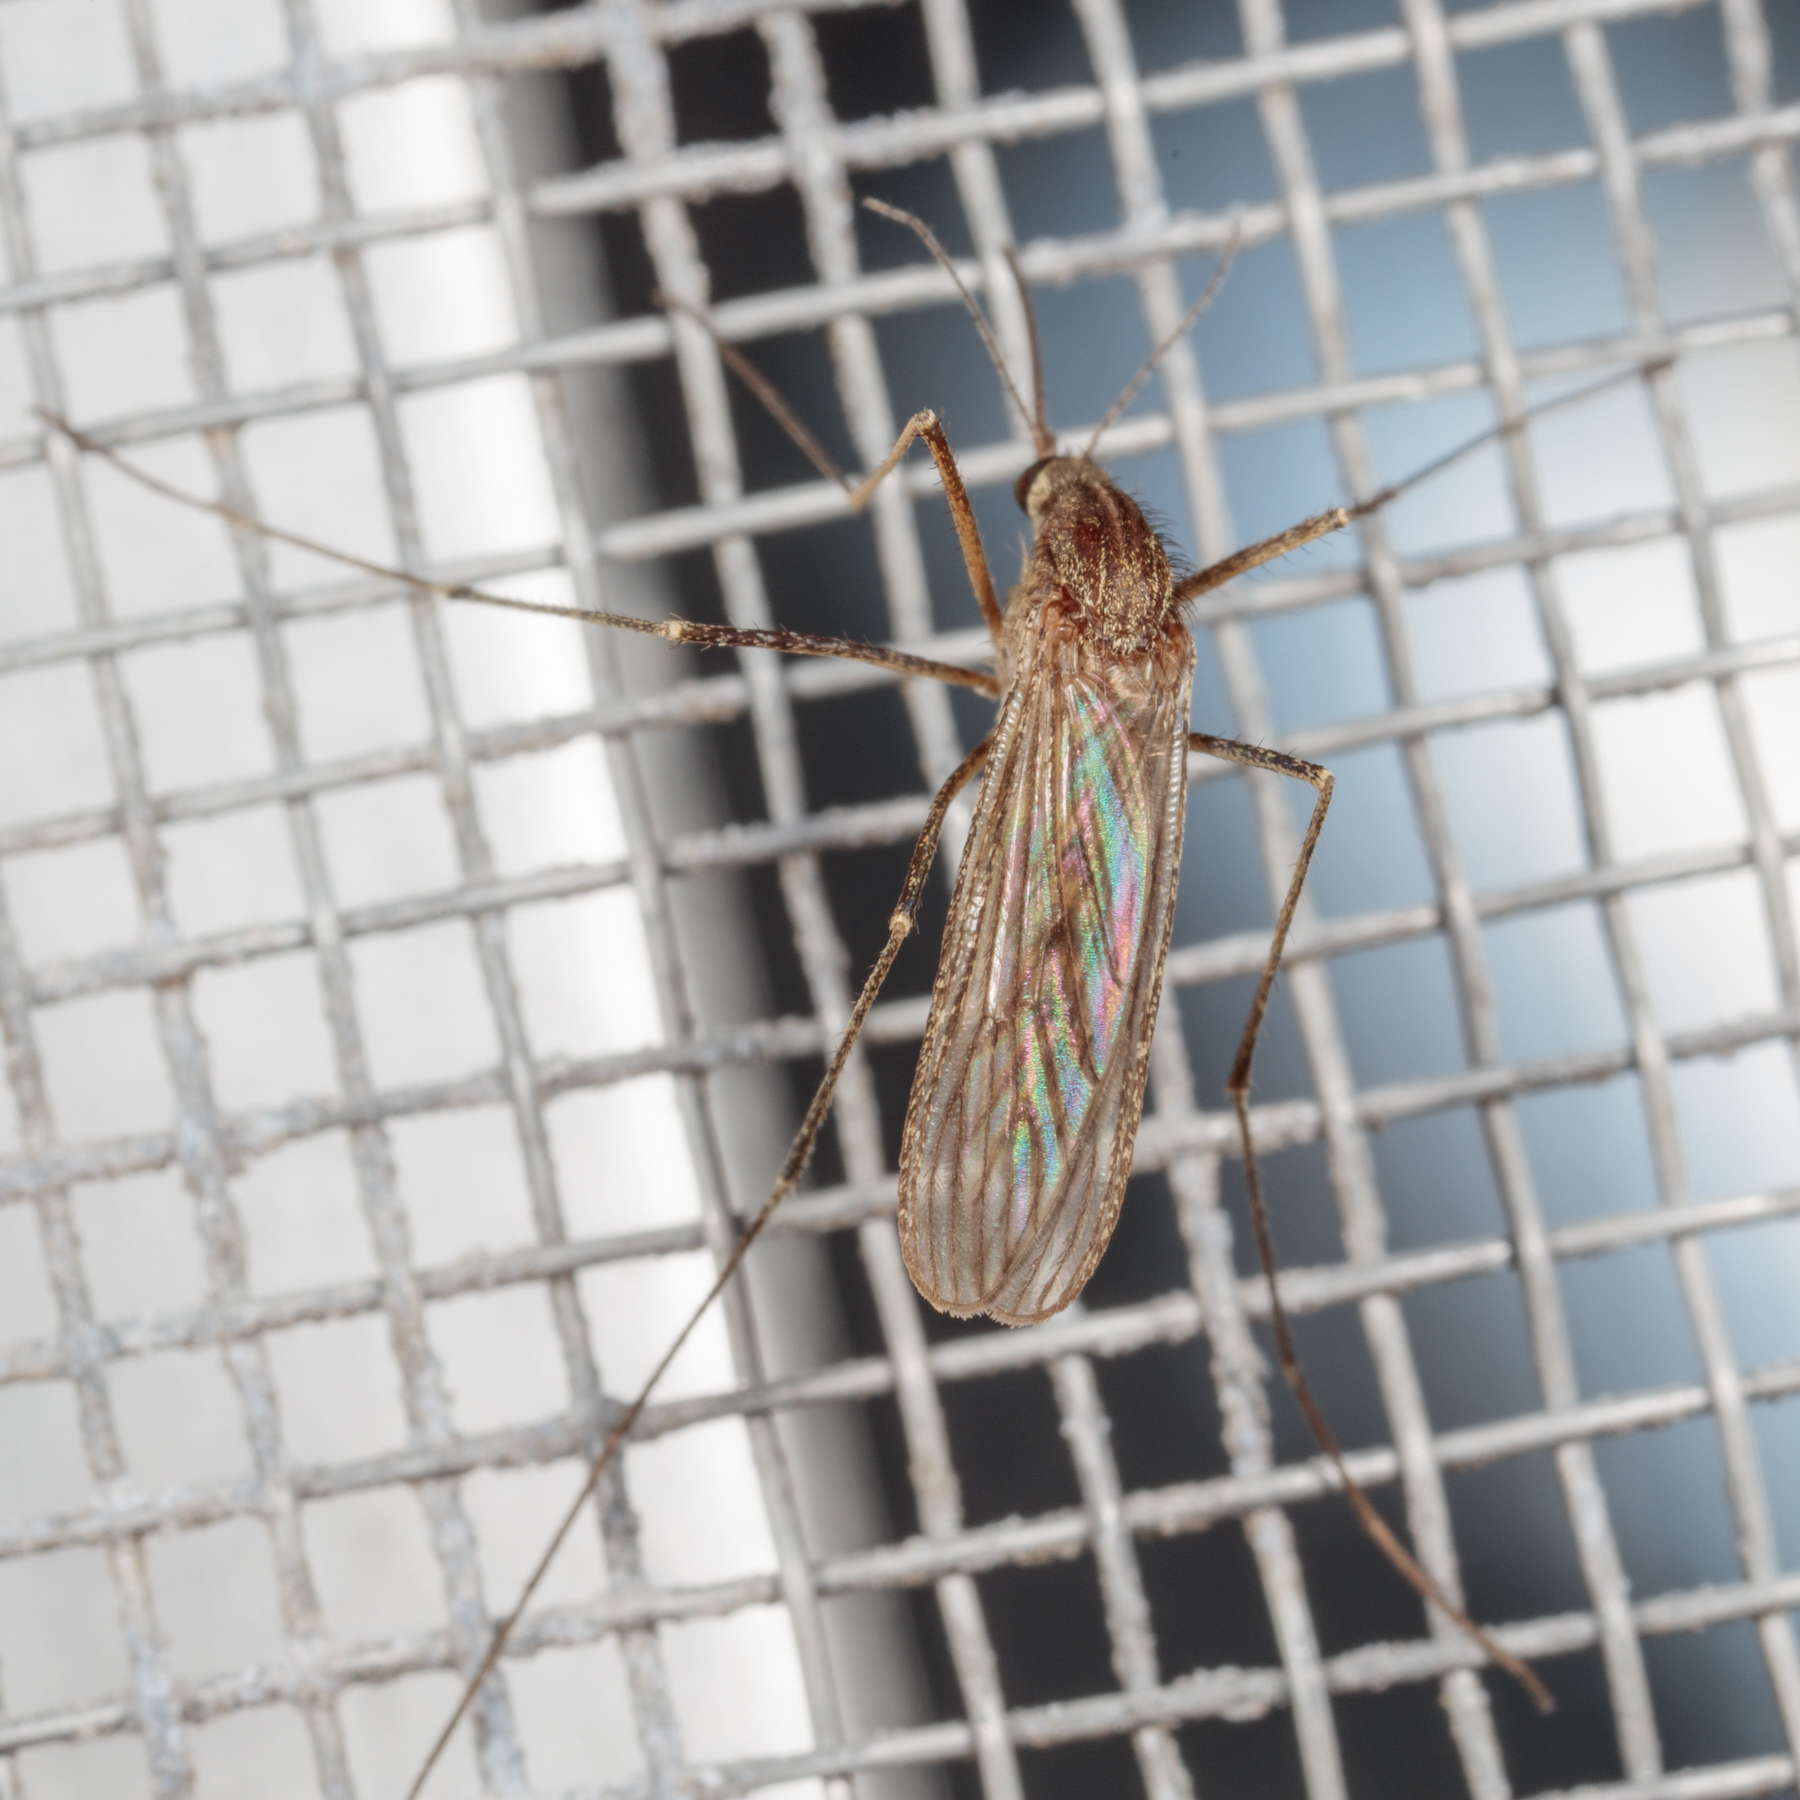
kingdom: Animalia
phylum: Arthropoda
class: Insecta
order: Diptera
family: Culicidae
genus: Culiseta
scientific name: Culiseta inornata
